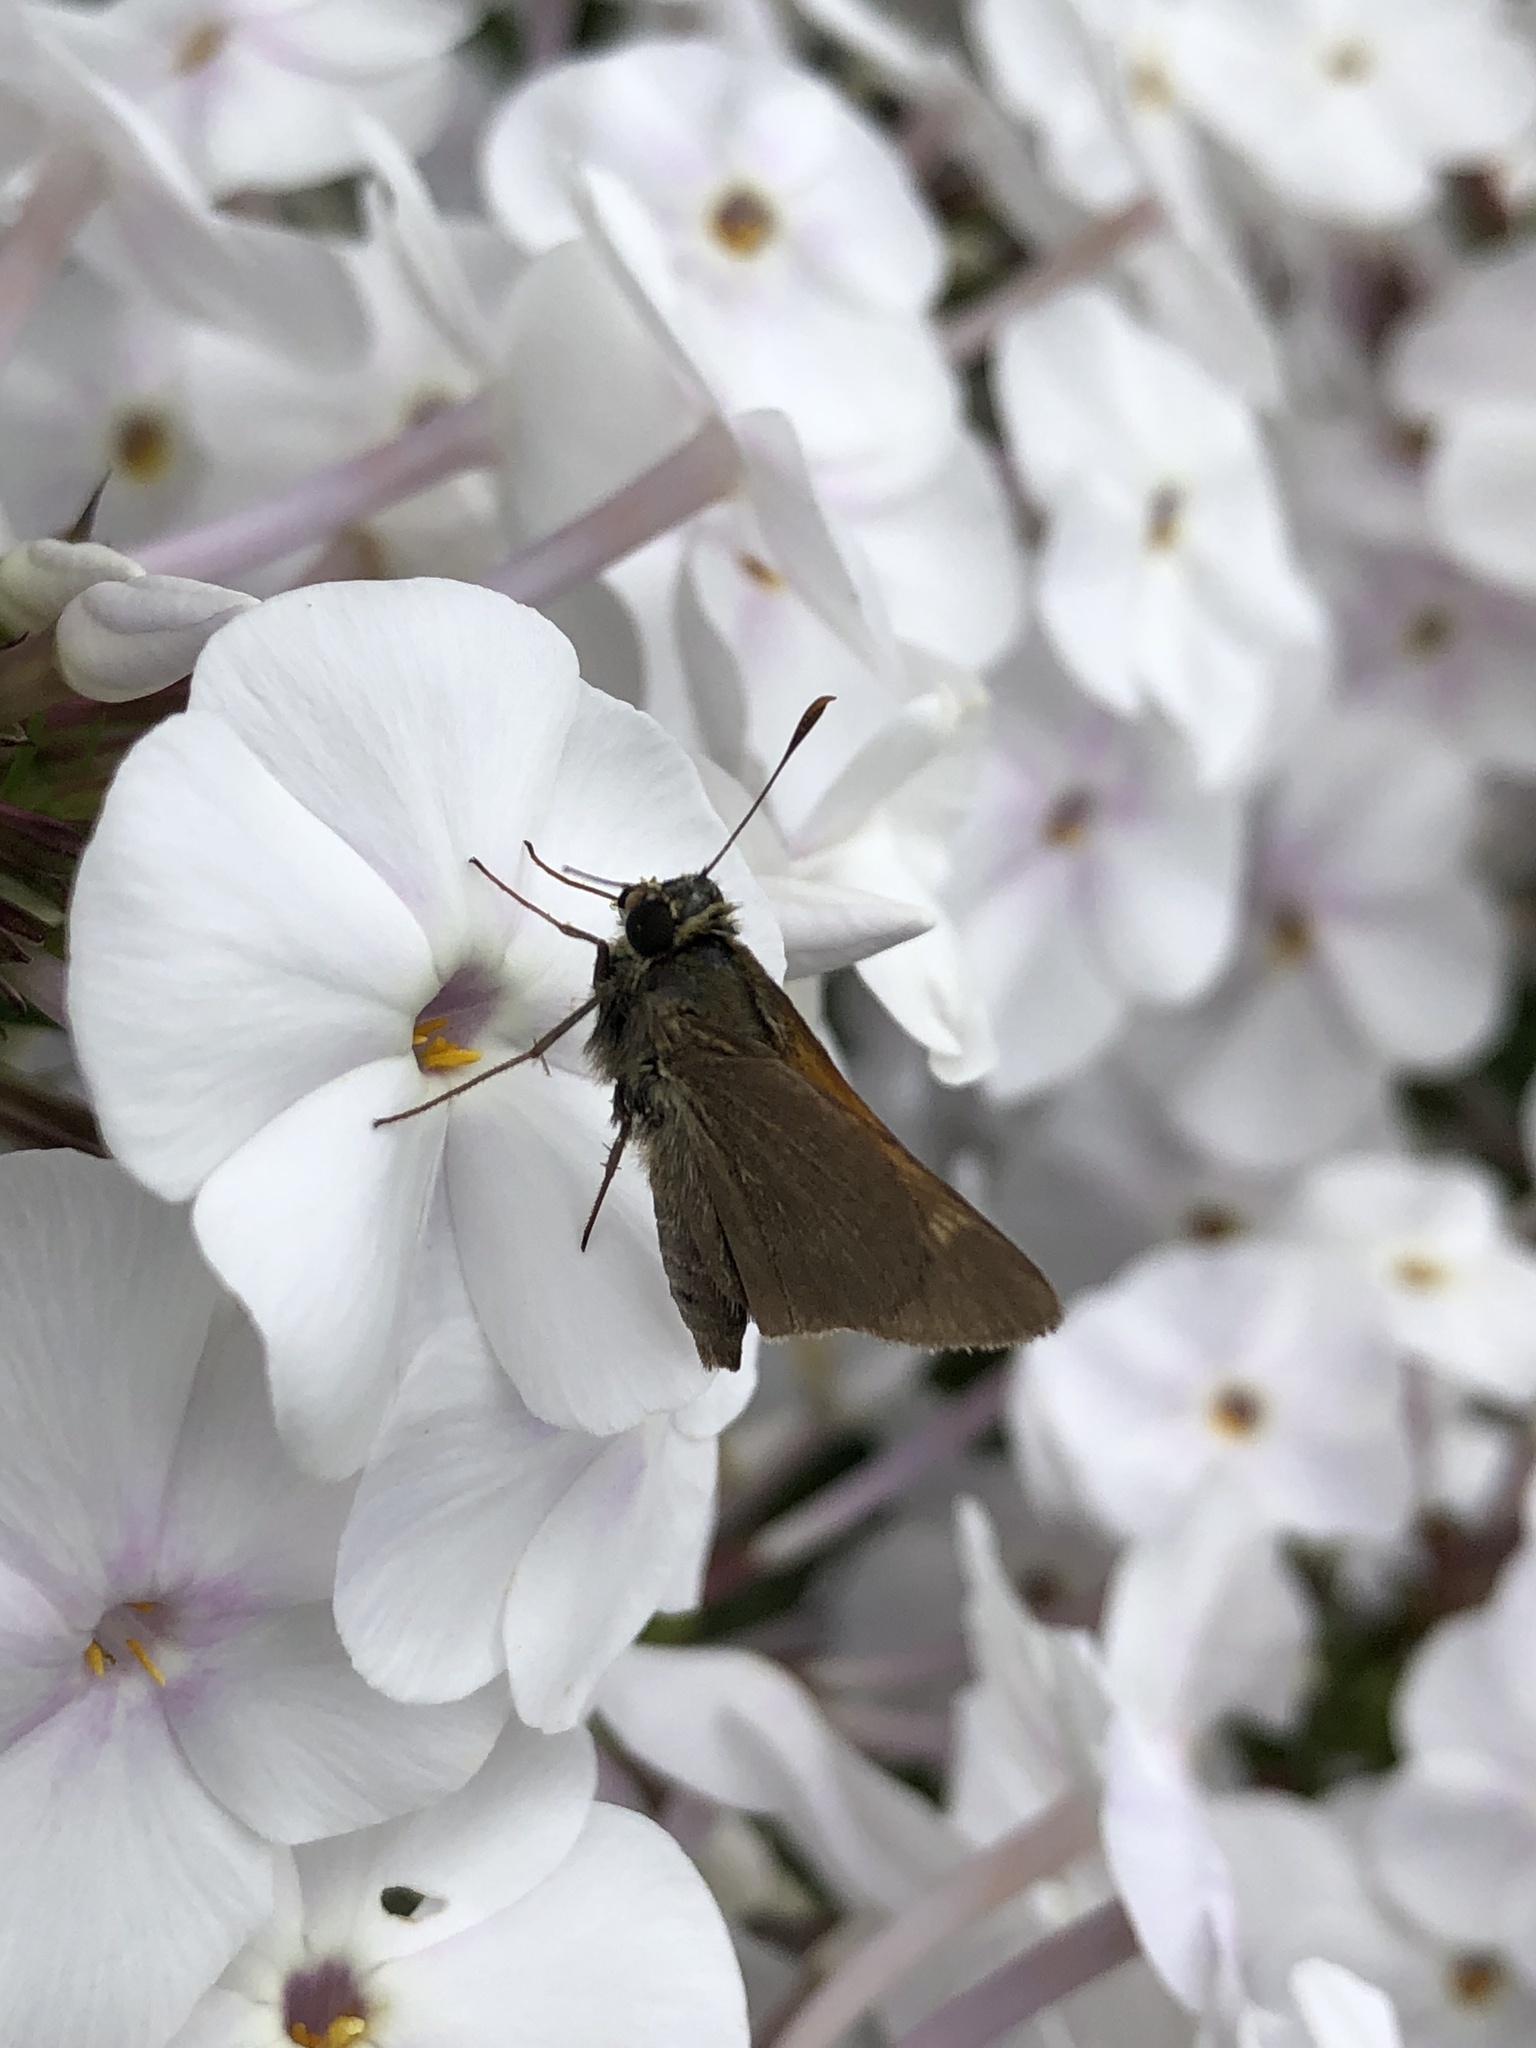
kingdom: Animalia
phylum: Arthropoda
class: Insecta
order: Lepidoptera
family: Hesperiidae
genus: Polites
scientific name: Polites themistocles
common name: Tawny-edged skipper
